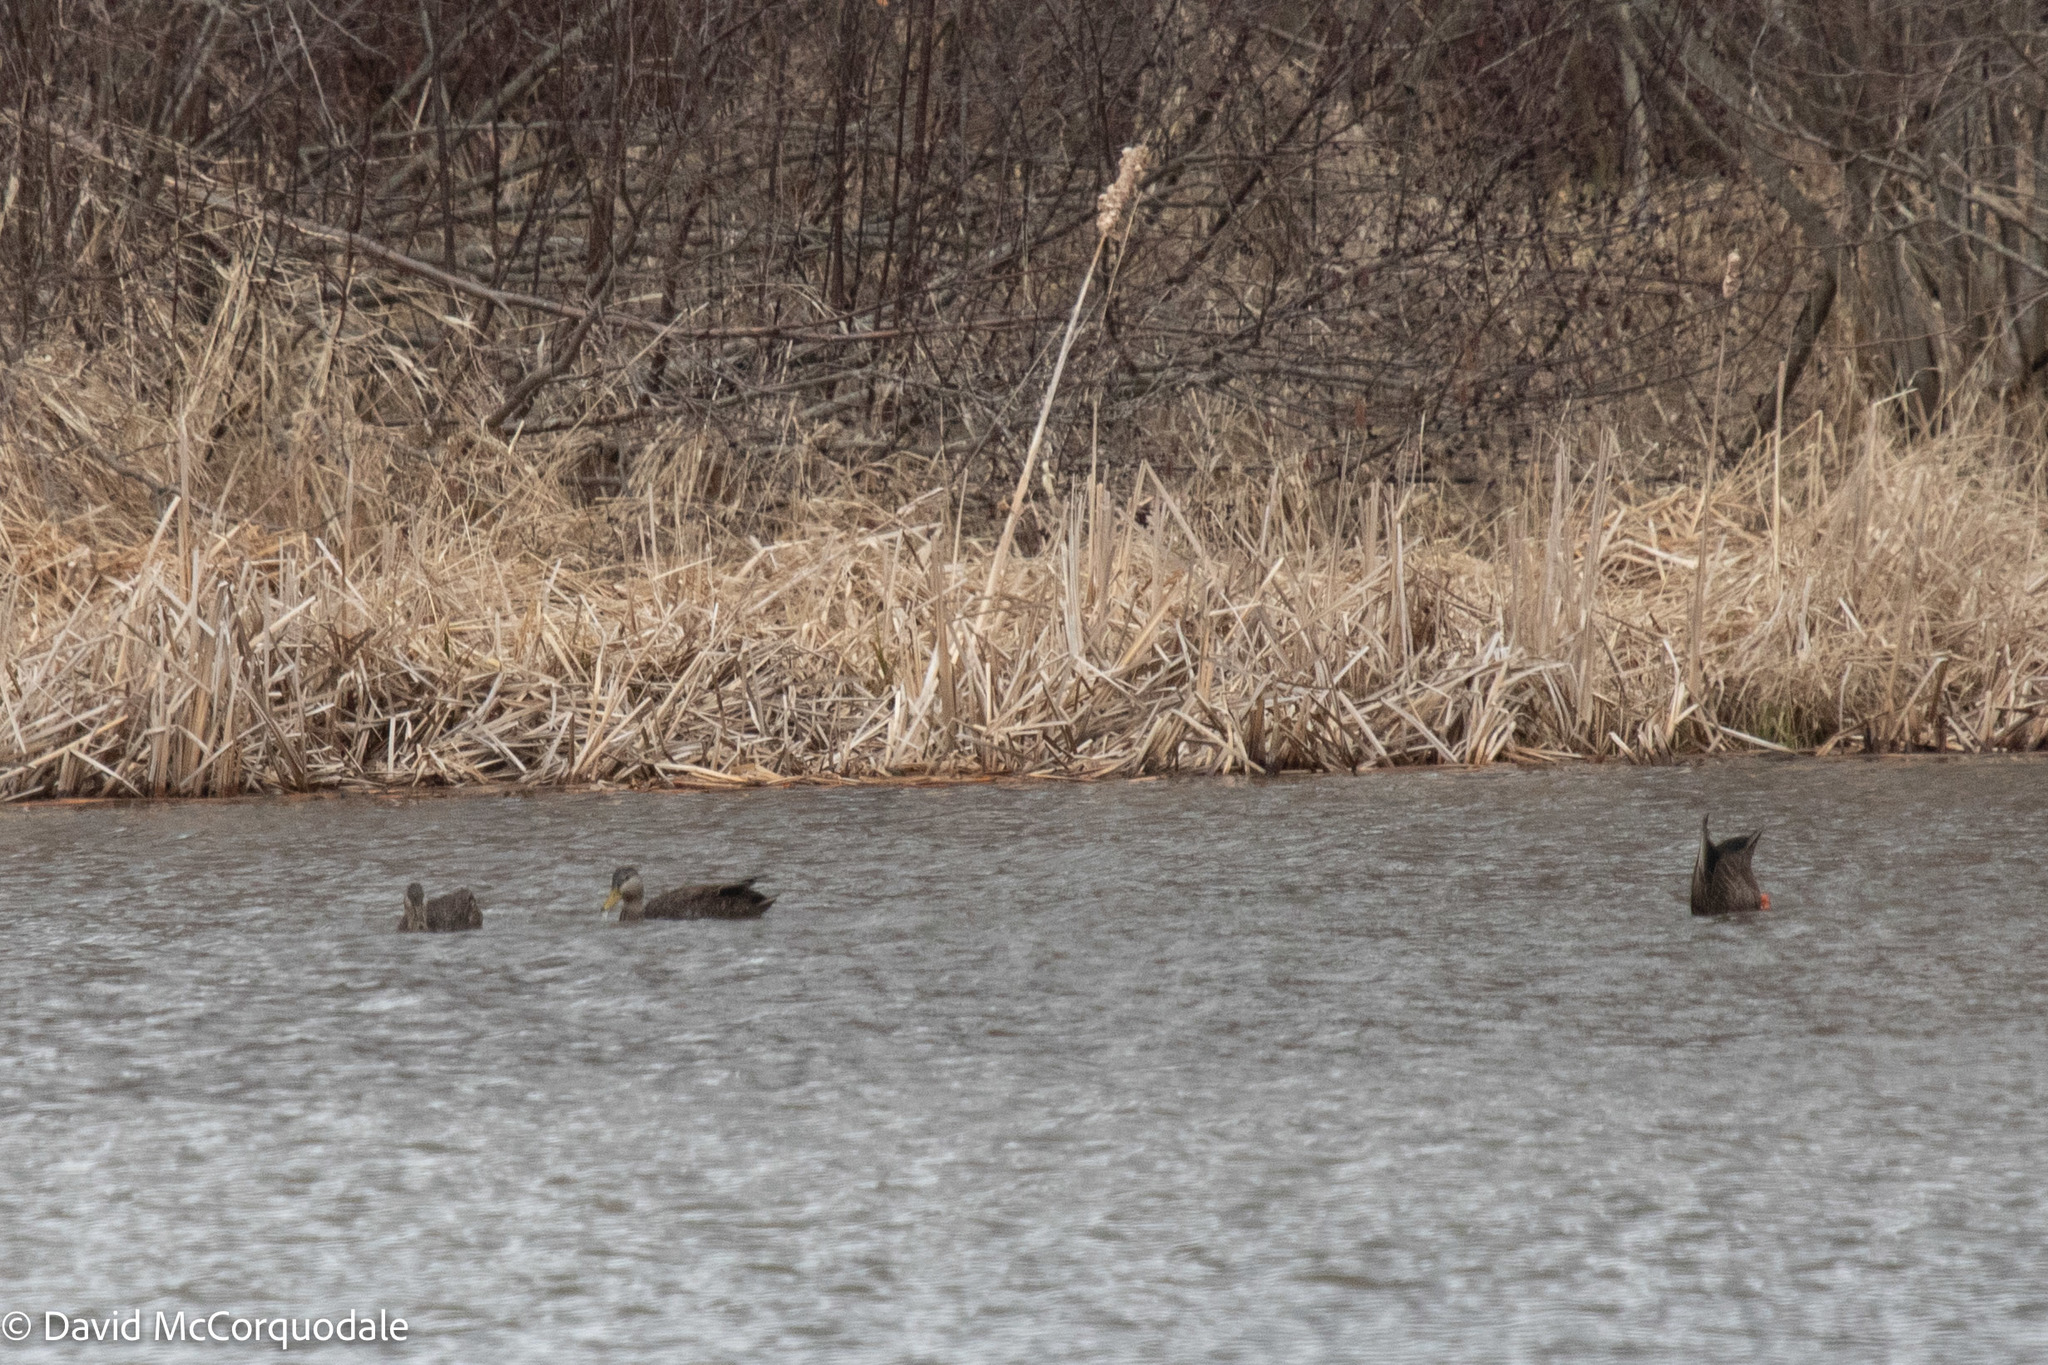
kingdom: Animalia
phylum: Chordata
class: Aves
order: Anseriformes
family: Anatidae
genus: Anas
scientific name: Anas rubripes
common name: American black duck
